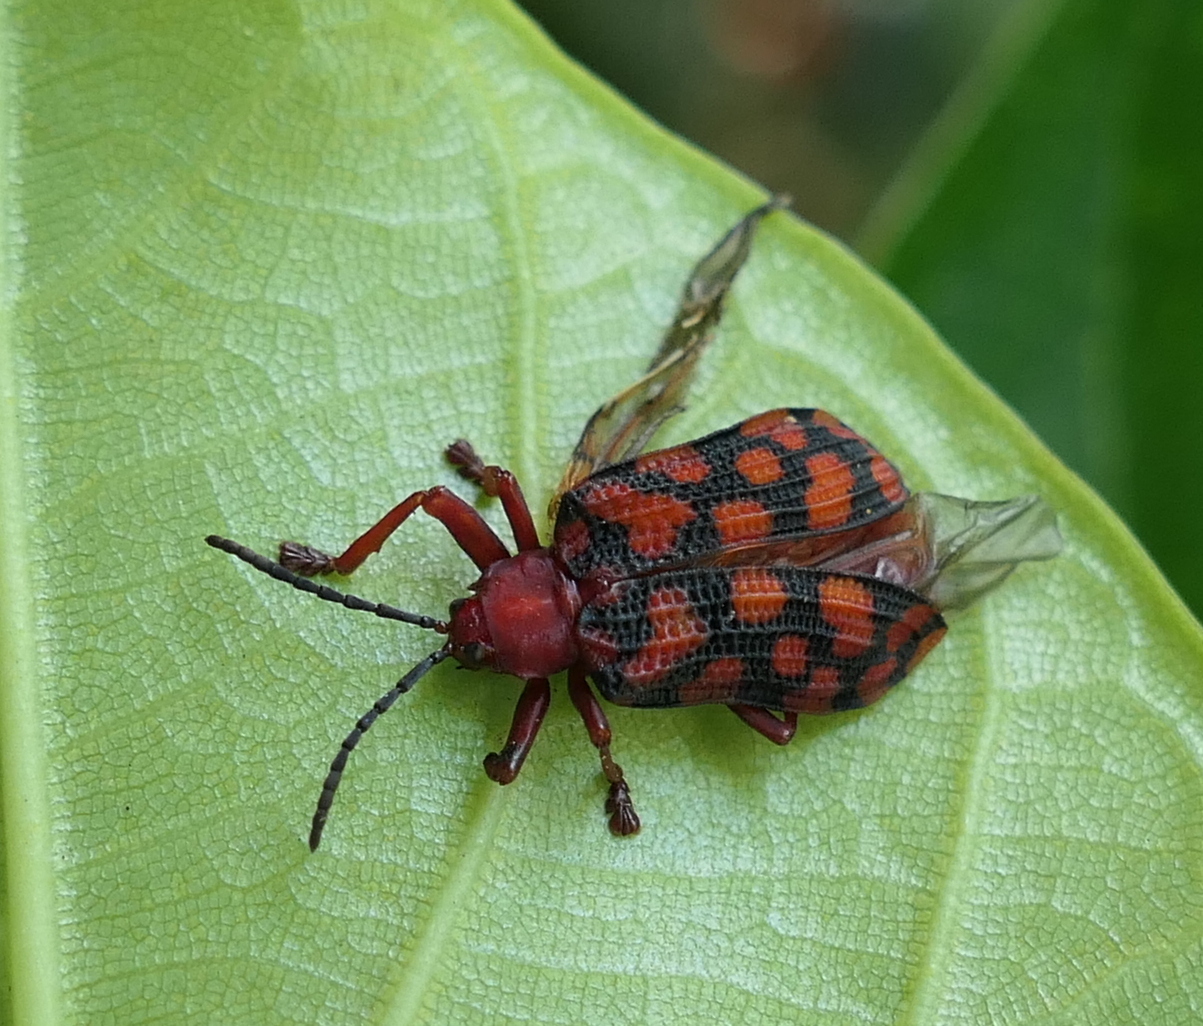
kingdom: Animalia
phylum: Arthropoda
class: Insecta
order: Coleoptera
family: Chrysomelidae
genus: Sceloenopla
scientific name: Sceloenopla maculata
